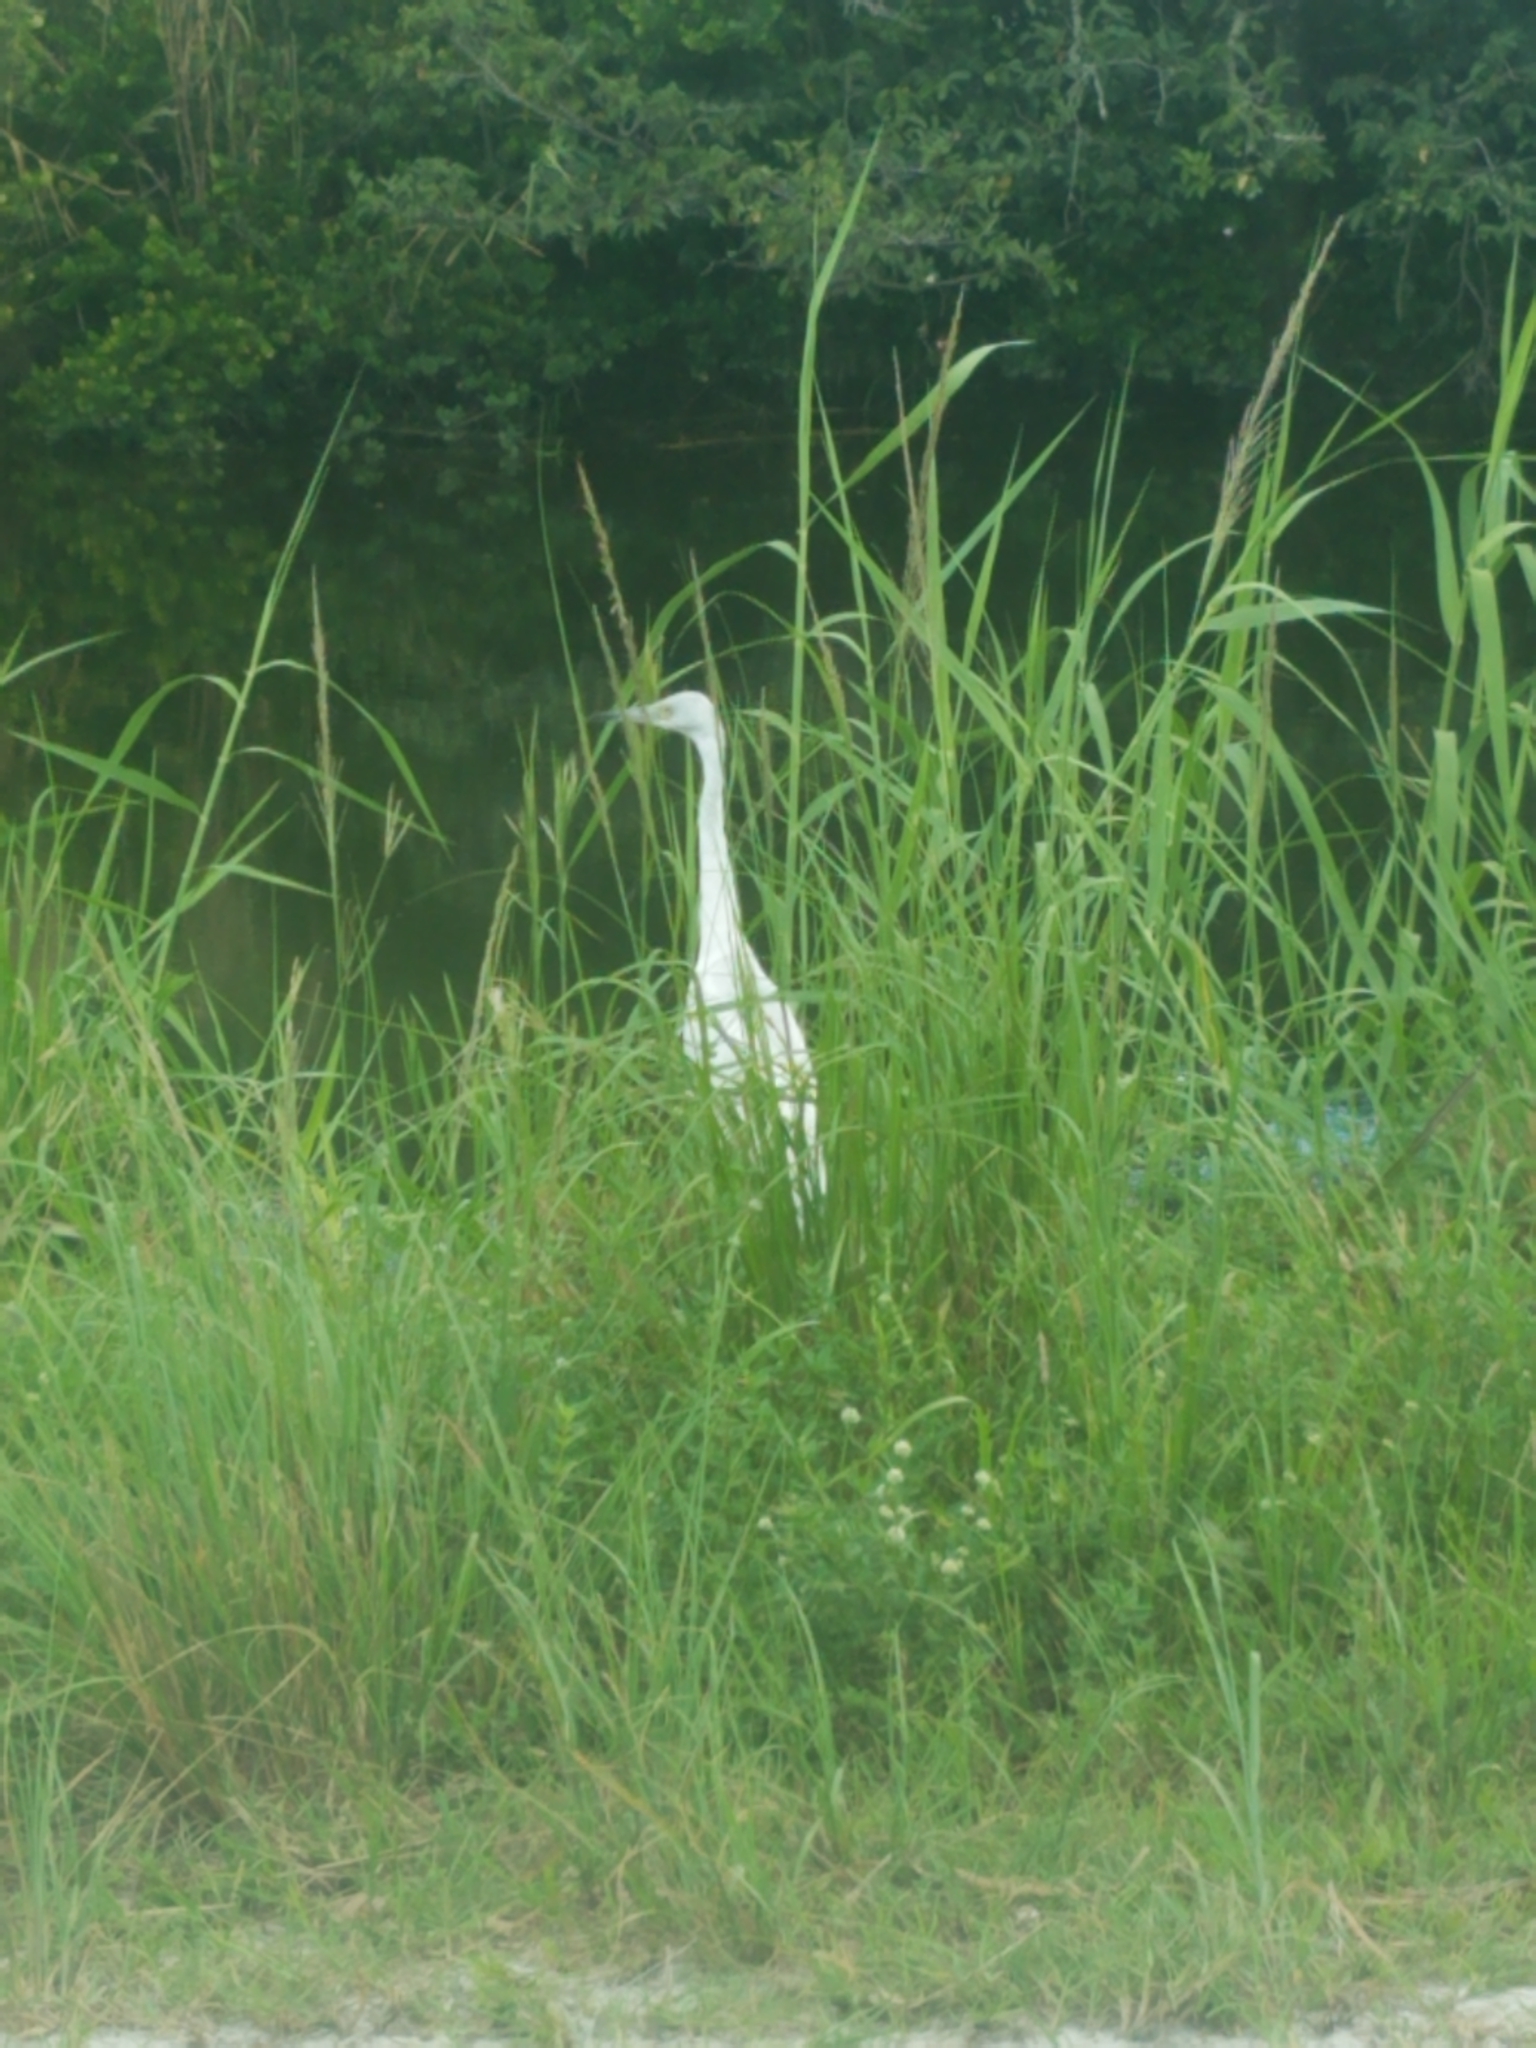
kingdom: Animalia
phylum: Chordata
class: Aves
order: Pelecaniformes
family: Ardeidae
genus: Egretta
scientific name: Egretta caerulea
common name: Little blue heron
